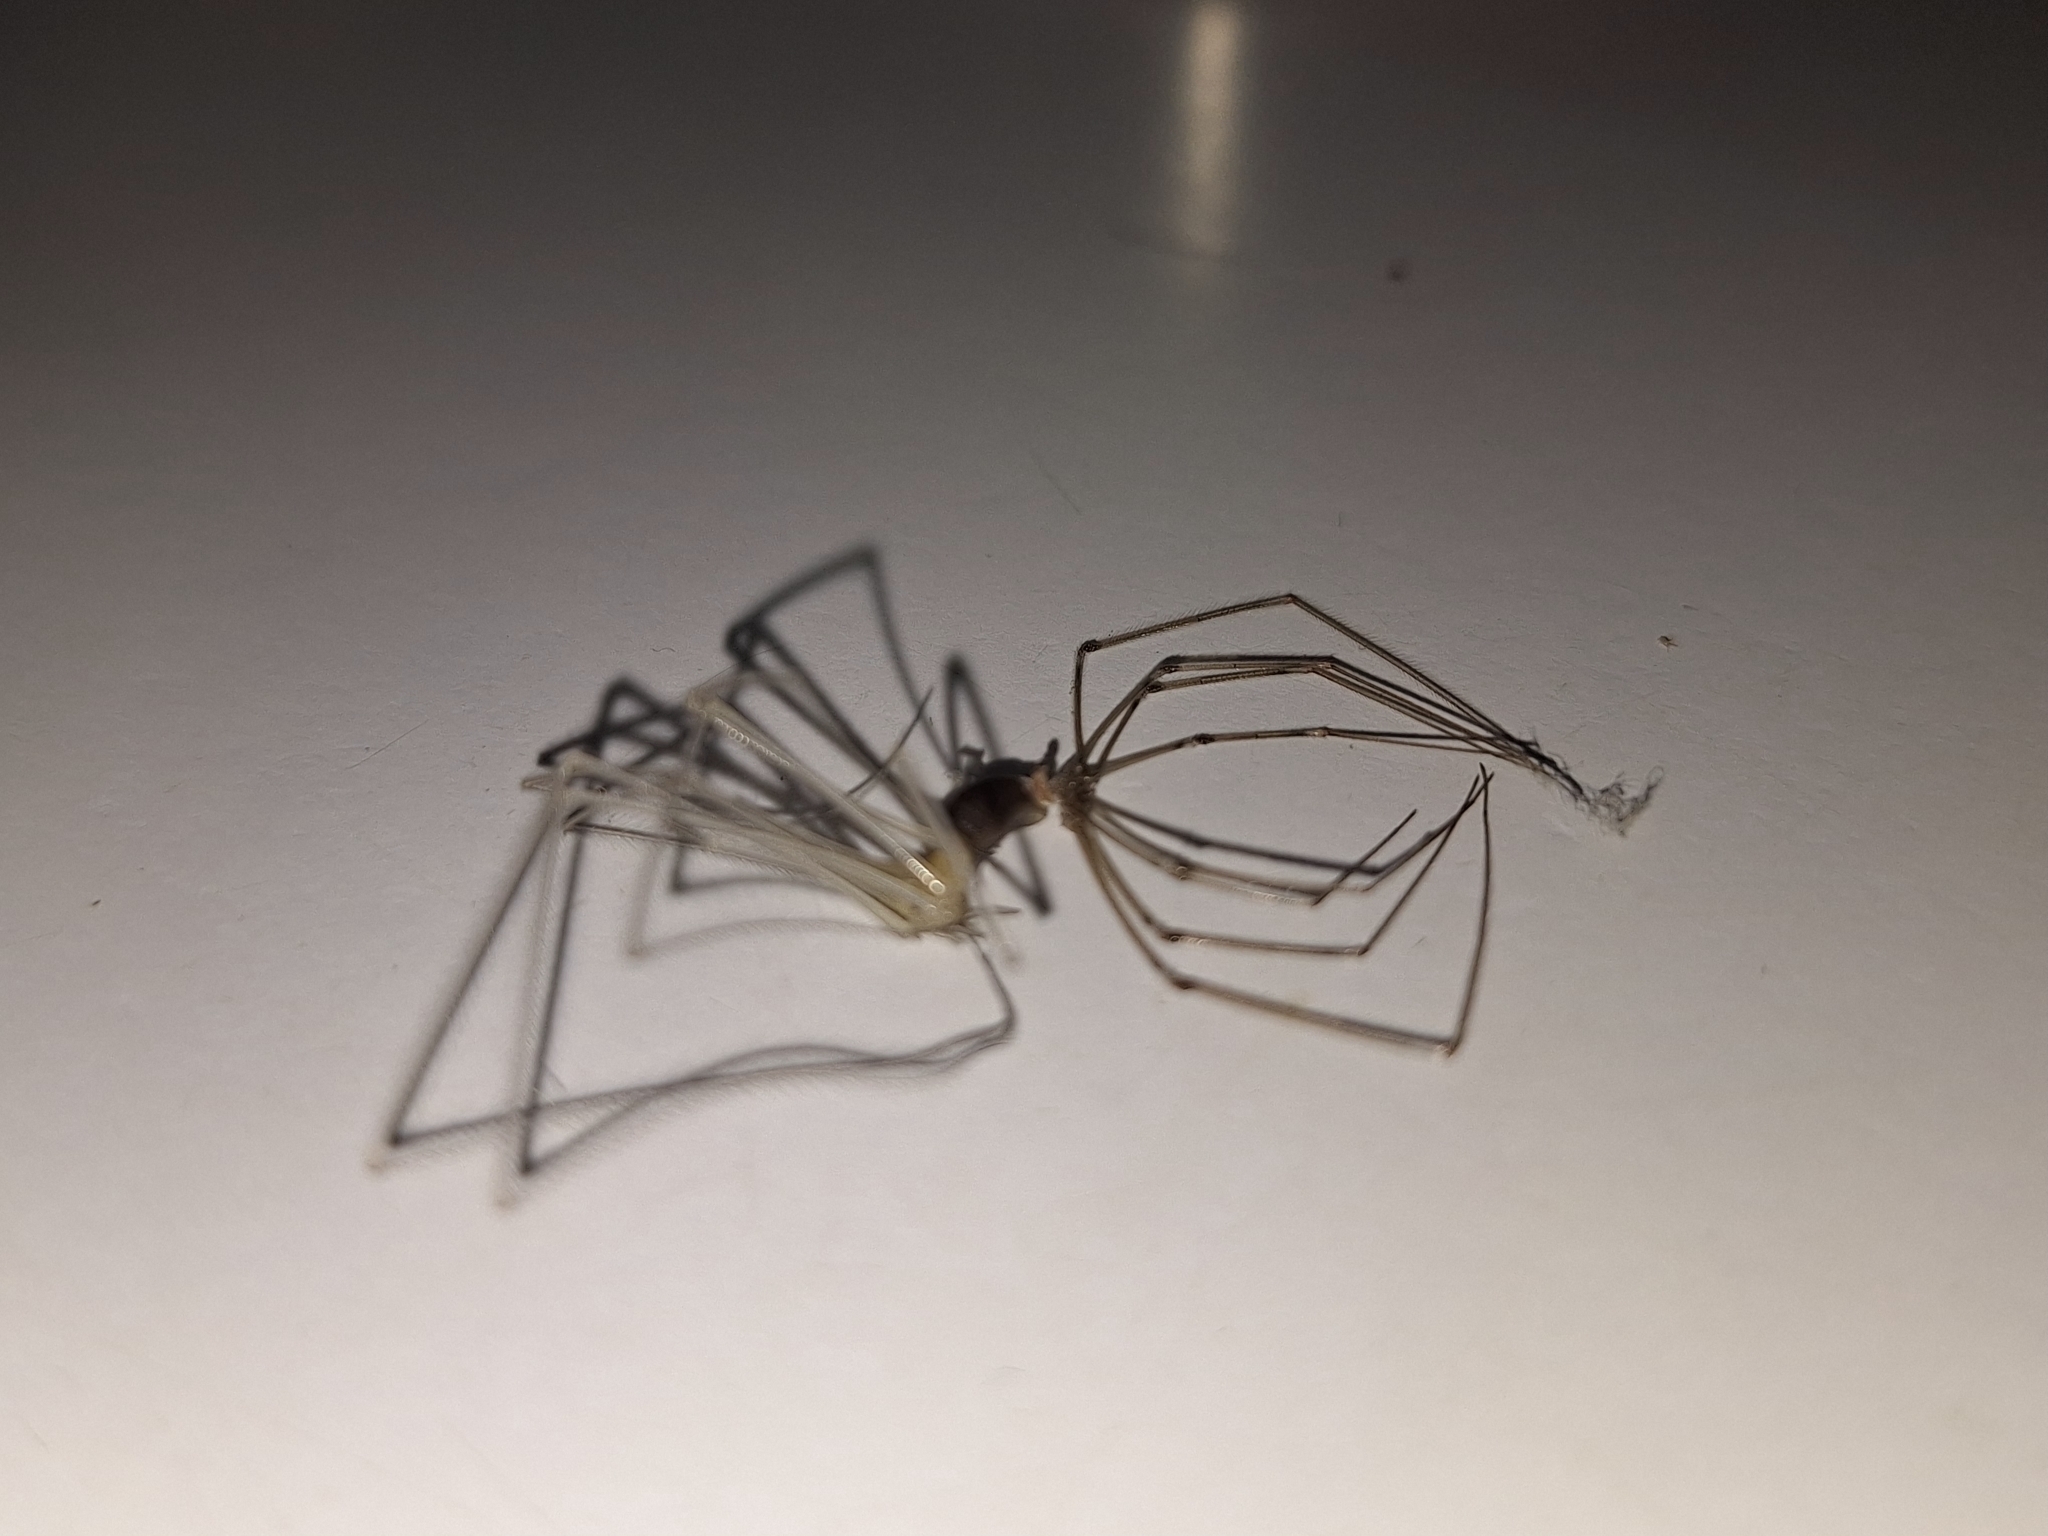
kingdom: Animalia
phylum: Arthropoda
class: Arachnida
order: Araneae
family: Pholcidae
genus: Pholcus
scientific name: Pholcus phalangioides
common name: Longbodied cellar spider
